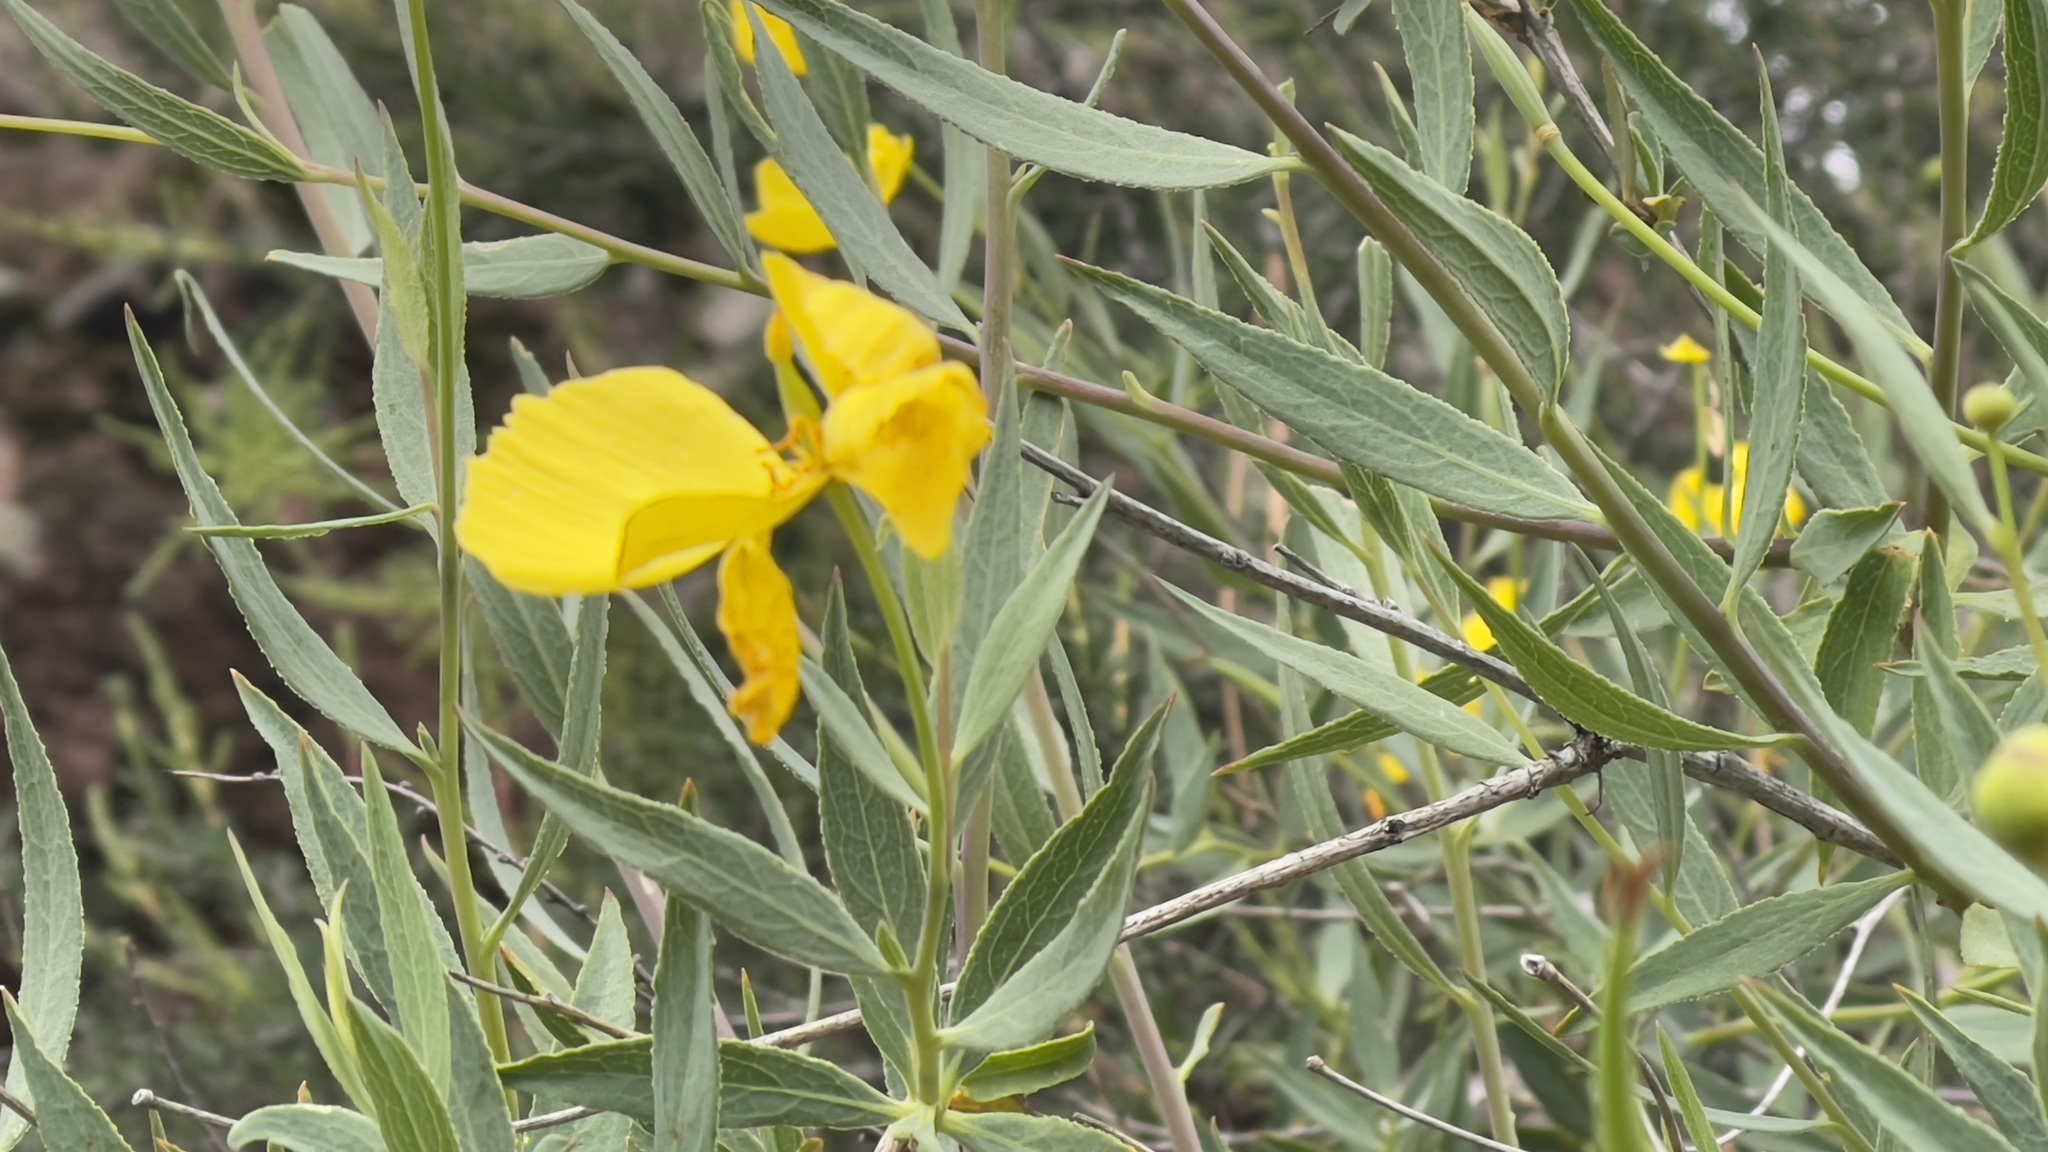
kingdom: Plantae
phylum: Tracheophyta
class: Magnoliopsida
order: Ranunculales
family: Papaveraceae
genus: Dendromecon
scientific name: Dendromecon rigida
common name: Tree poppy
